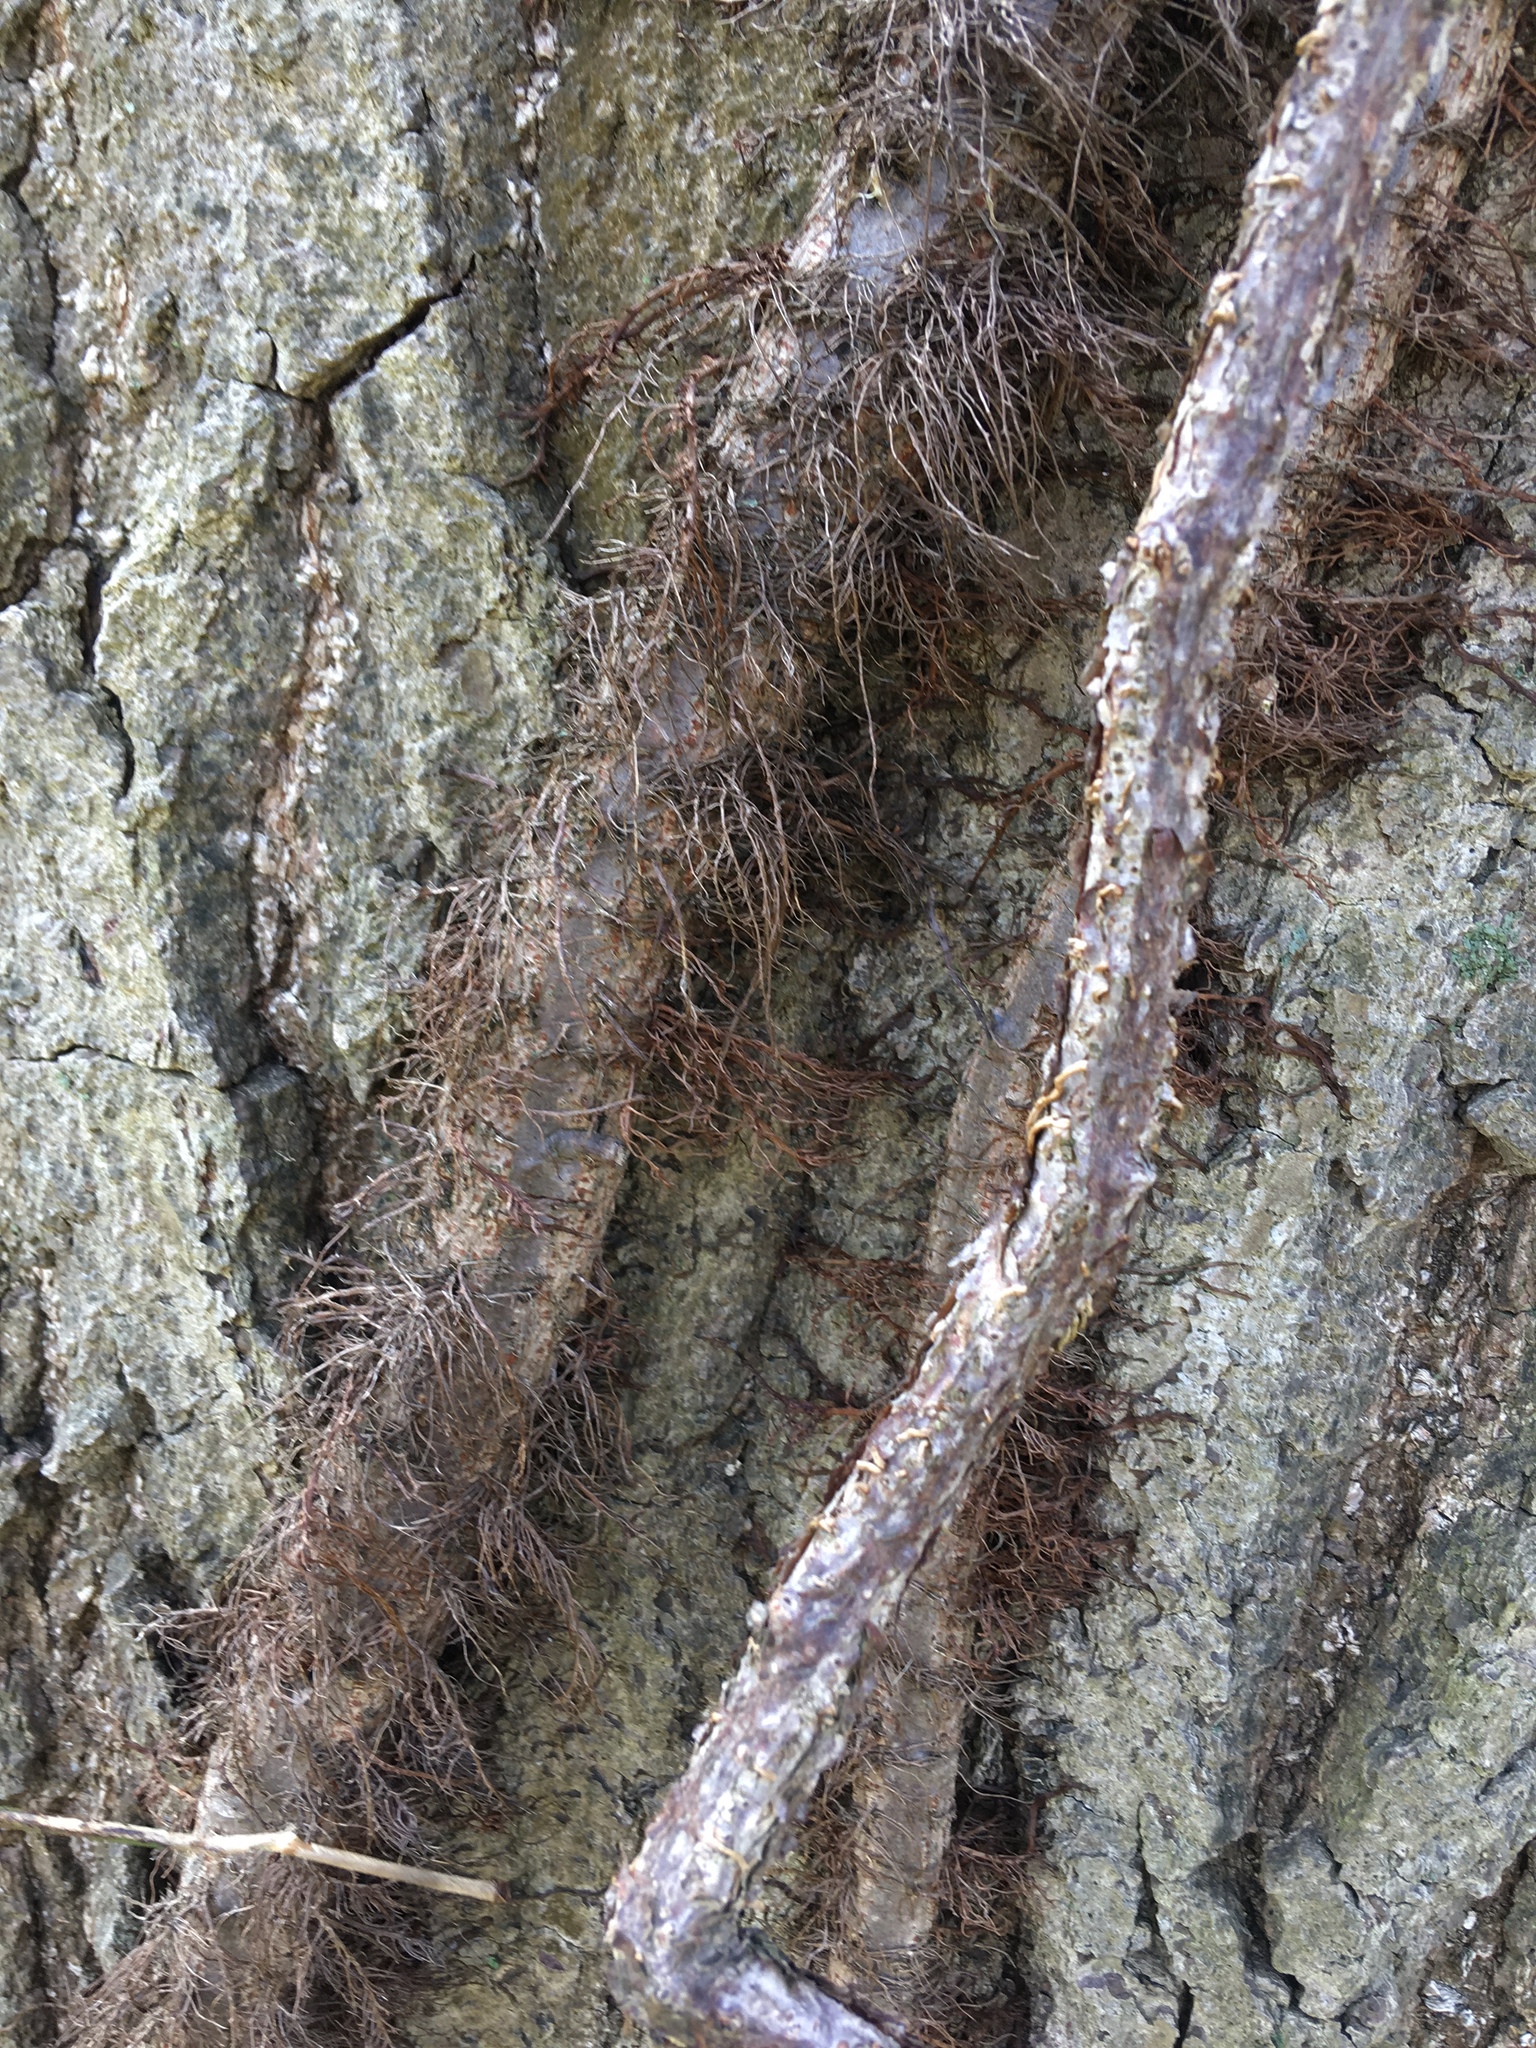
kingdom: Plantae
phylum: Tracheophyta
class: Magnoliopsida
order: Sapindales
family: Anacardiaceae
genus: Toxicodendron
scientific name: Toxicodendron radicans
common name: Poison ivy
